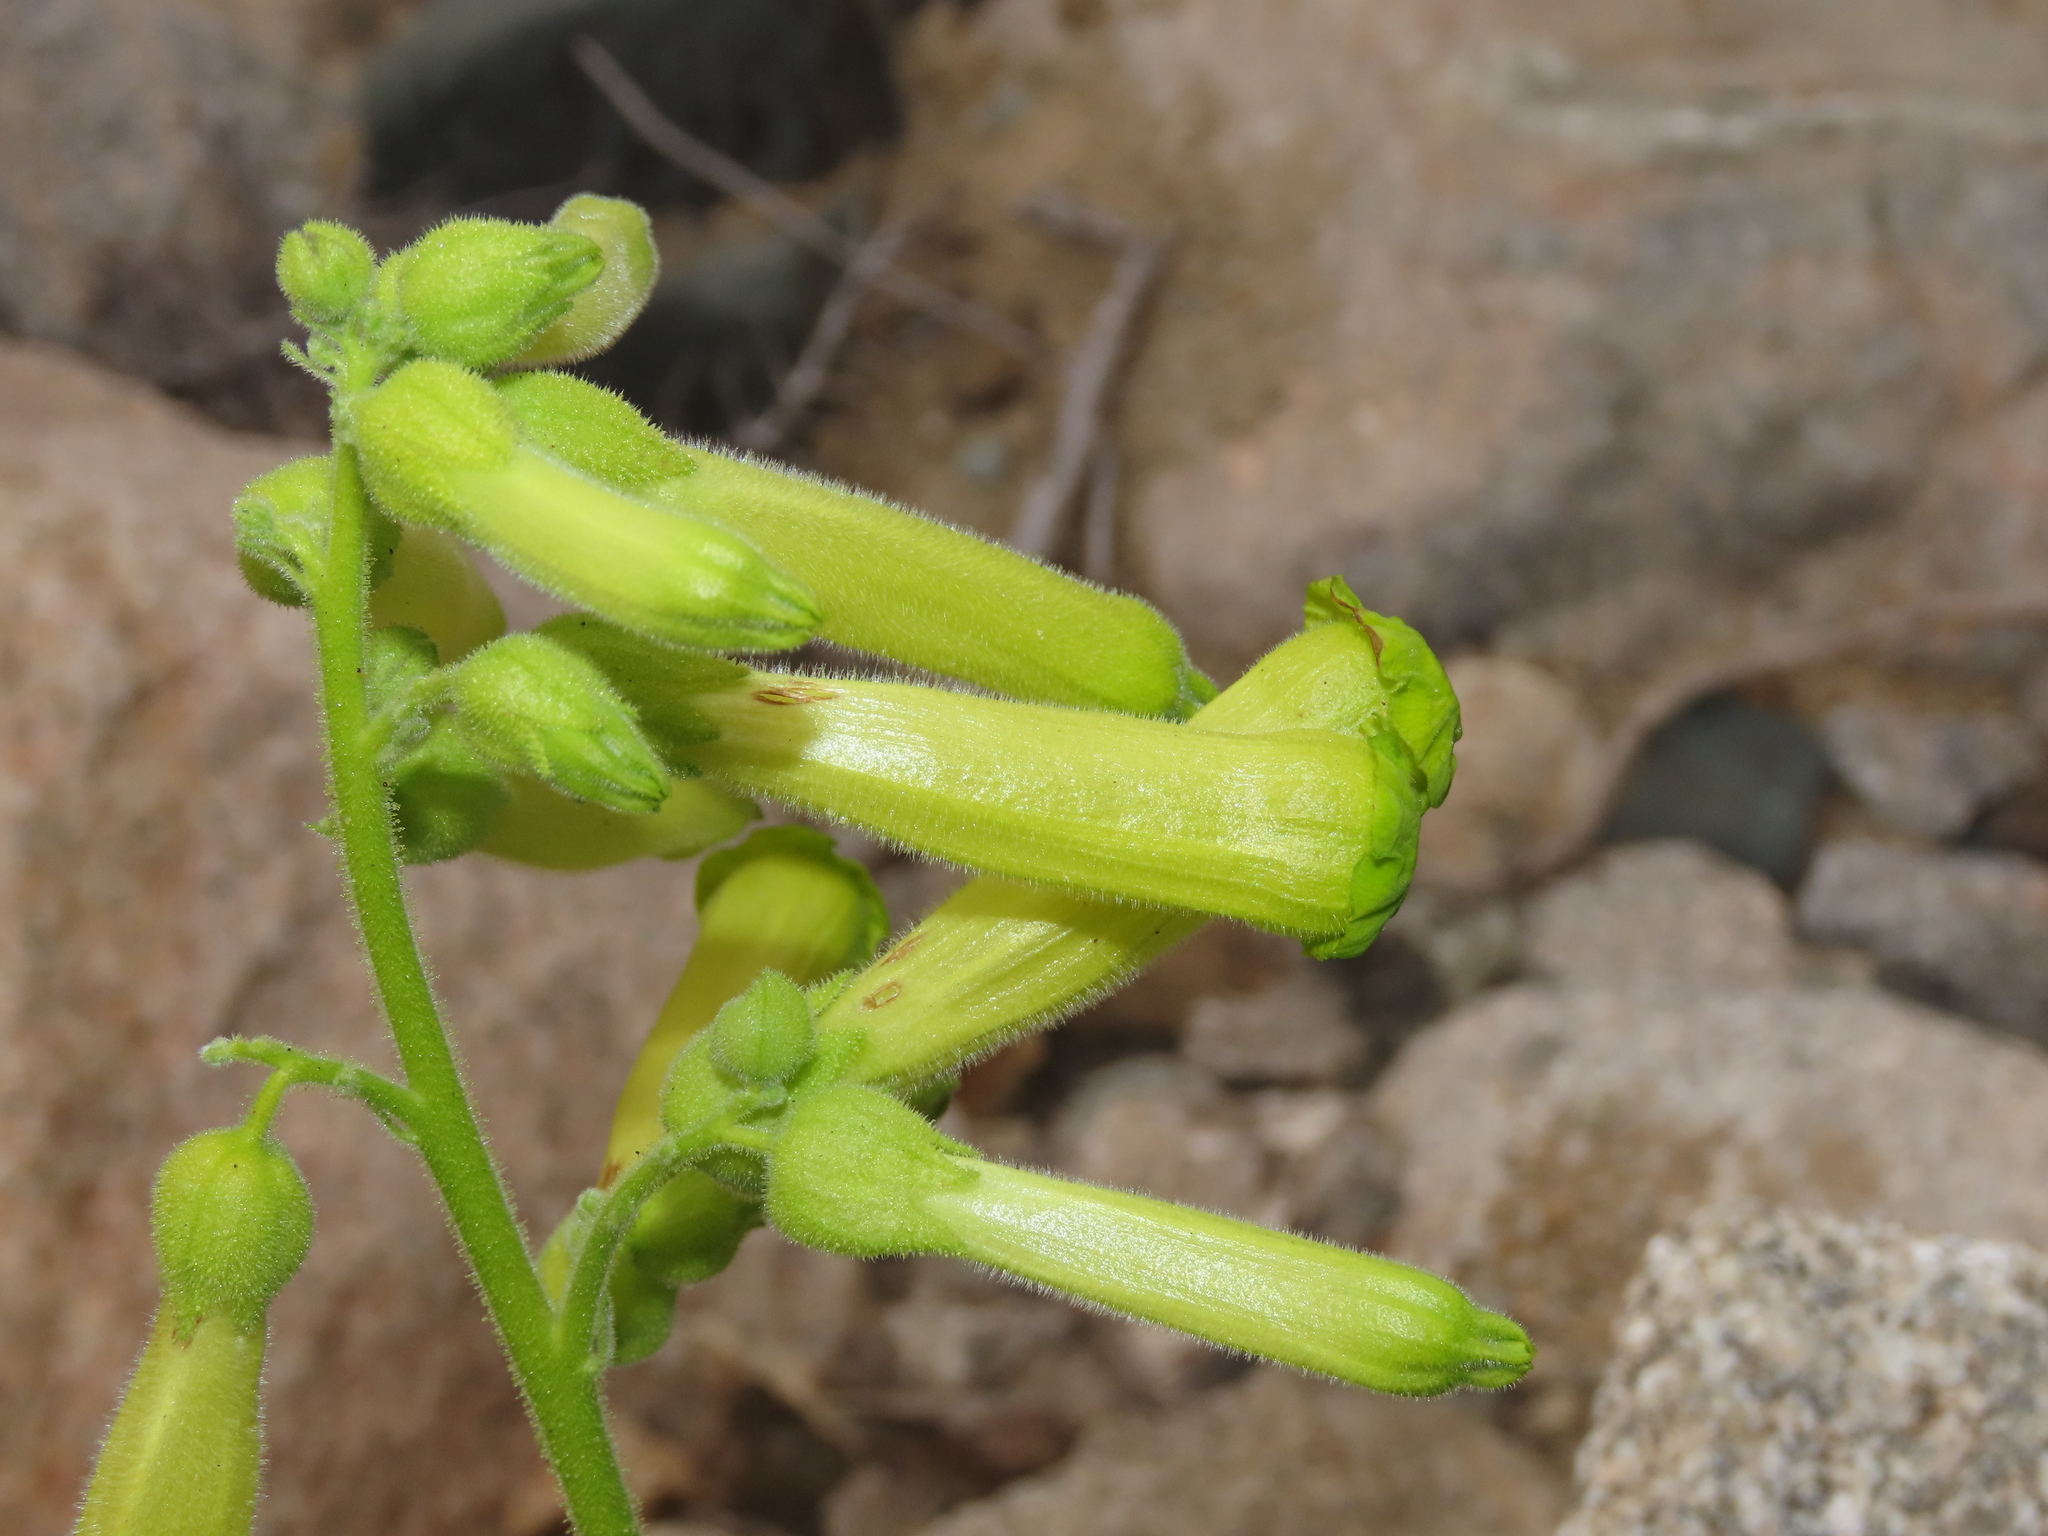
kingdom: Plantae
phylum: Tracheophyta
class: Magnoliopsida
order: Solanales
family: Solanaceae
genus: Nicotiana
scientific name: Nicotiana solanifolia
